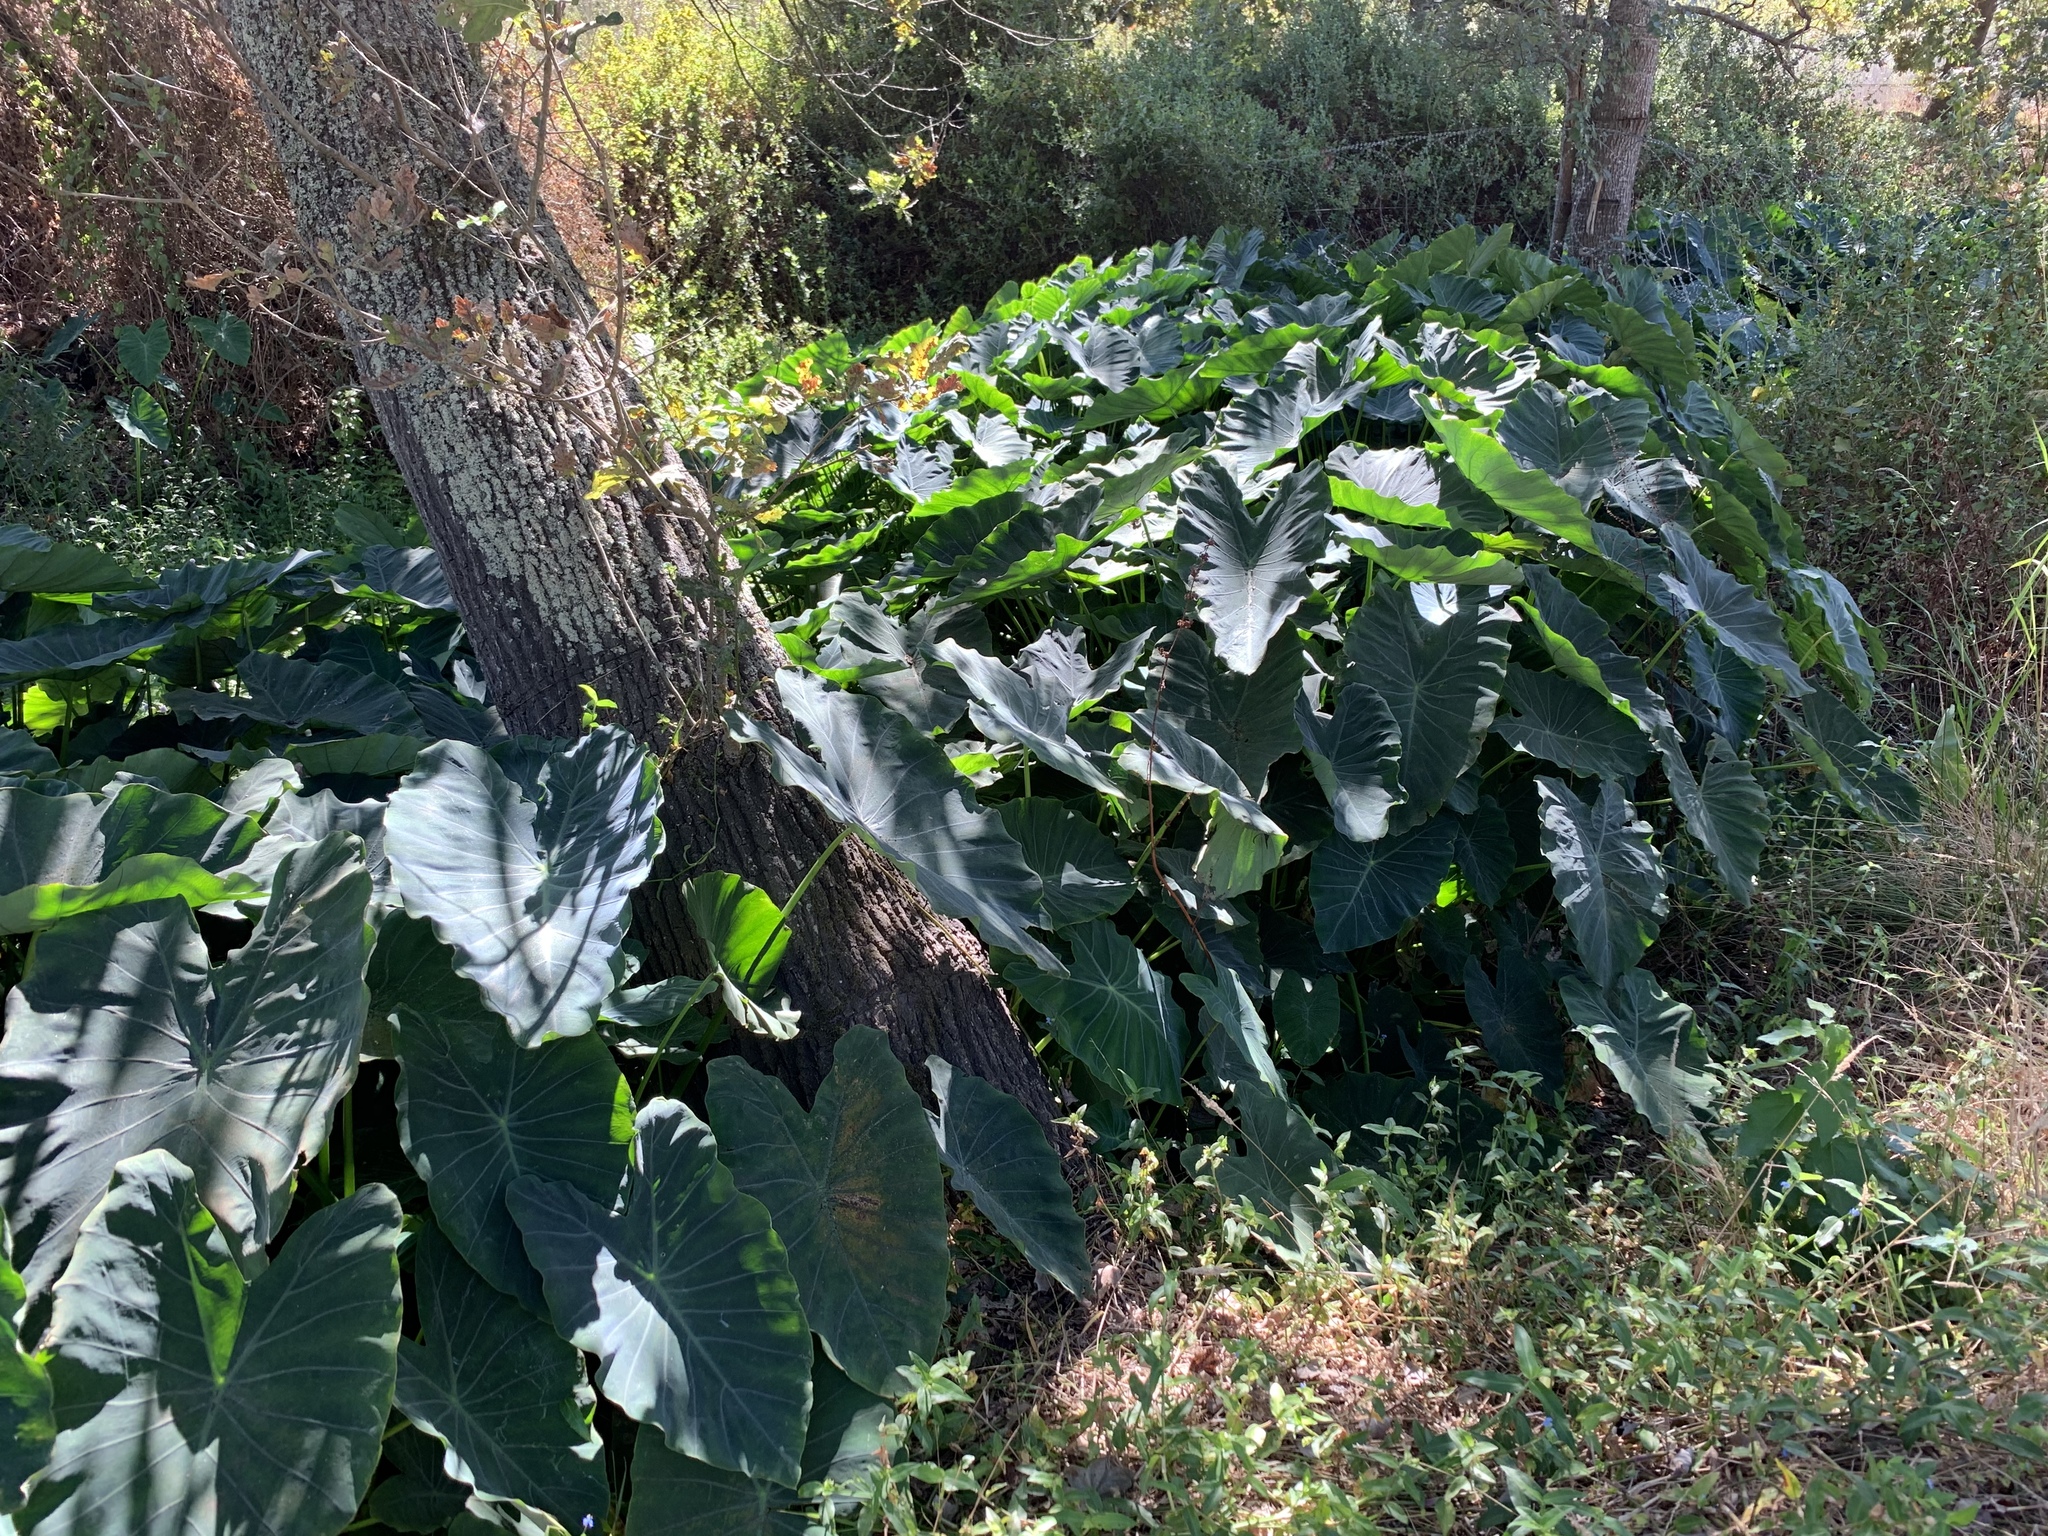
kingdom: Plantae
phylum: Tracheophyta
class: Liliopsida
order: Alismatales
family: Araceae
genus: Colocasia
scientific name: Colocasia esculenta
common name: Taro
